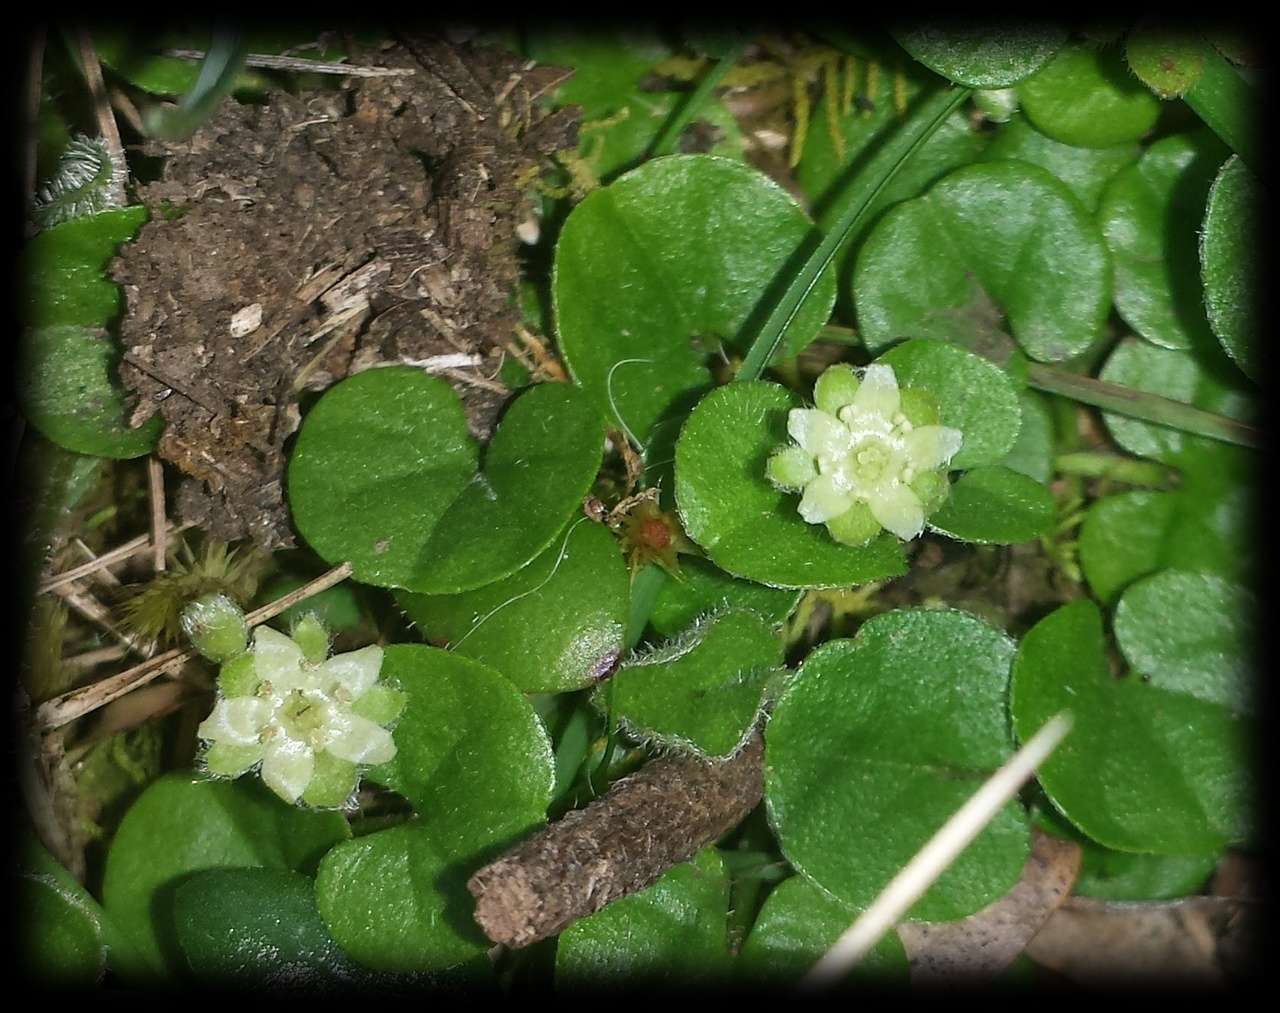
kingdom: Plantae
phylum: Tracheophyta
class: Magnoliopsida
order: Solanales
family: Convolvulaceae
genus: Dichondra
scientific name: Dichondra repens
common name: Kidneyweed
